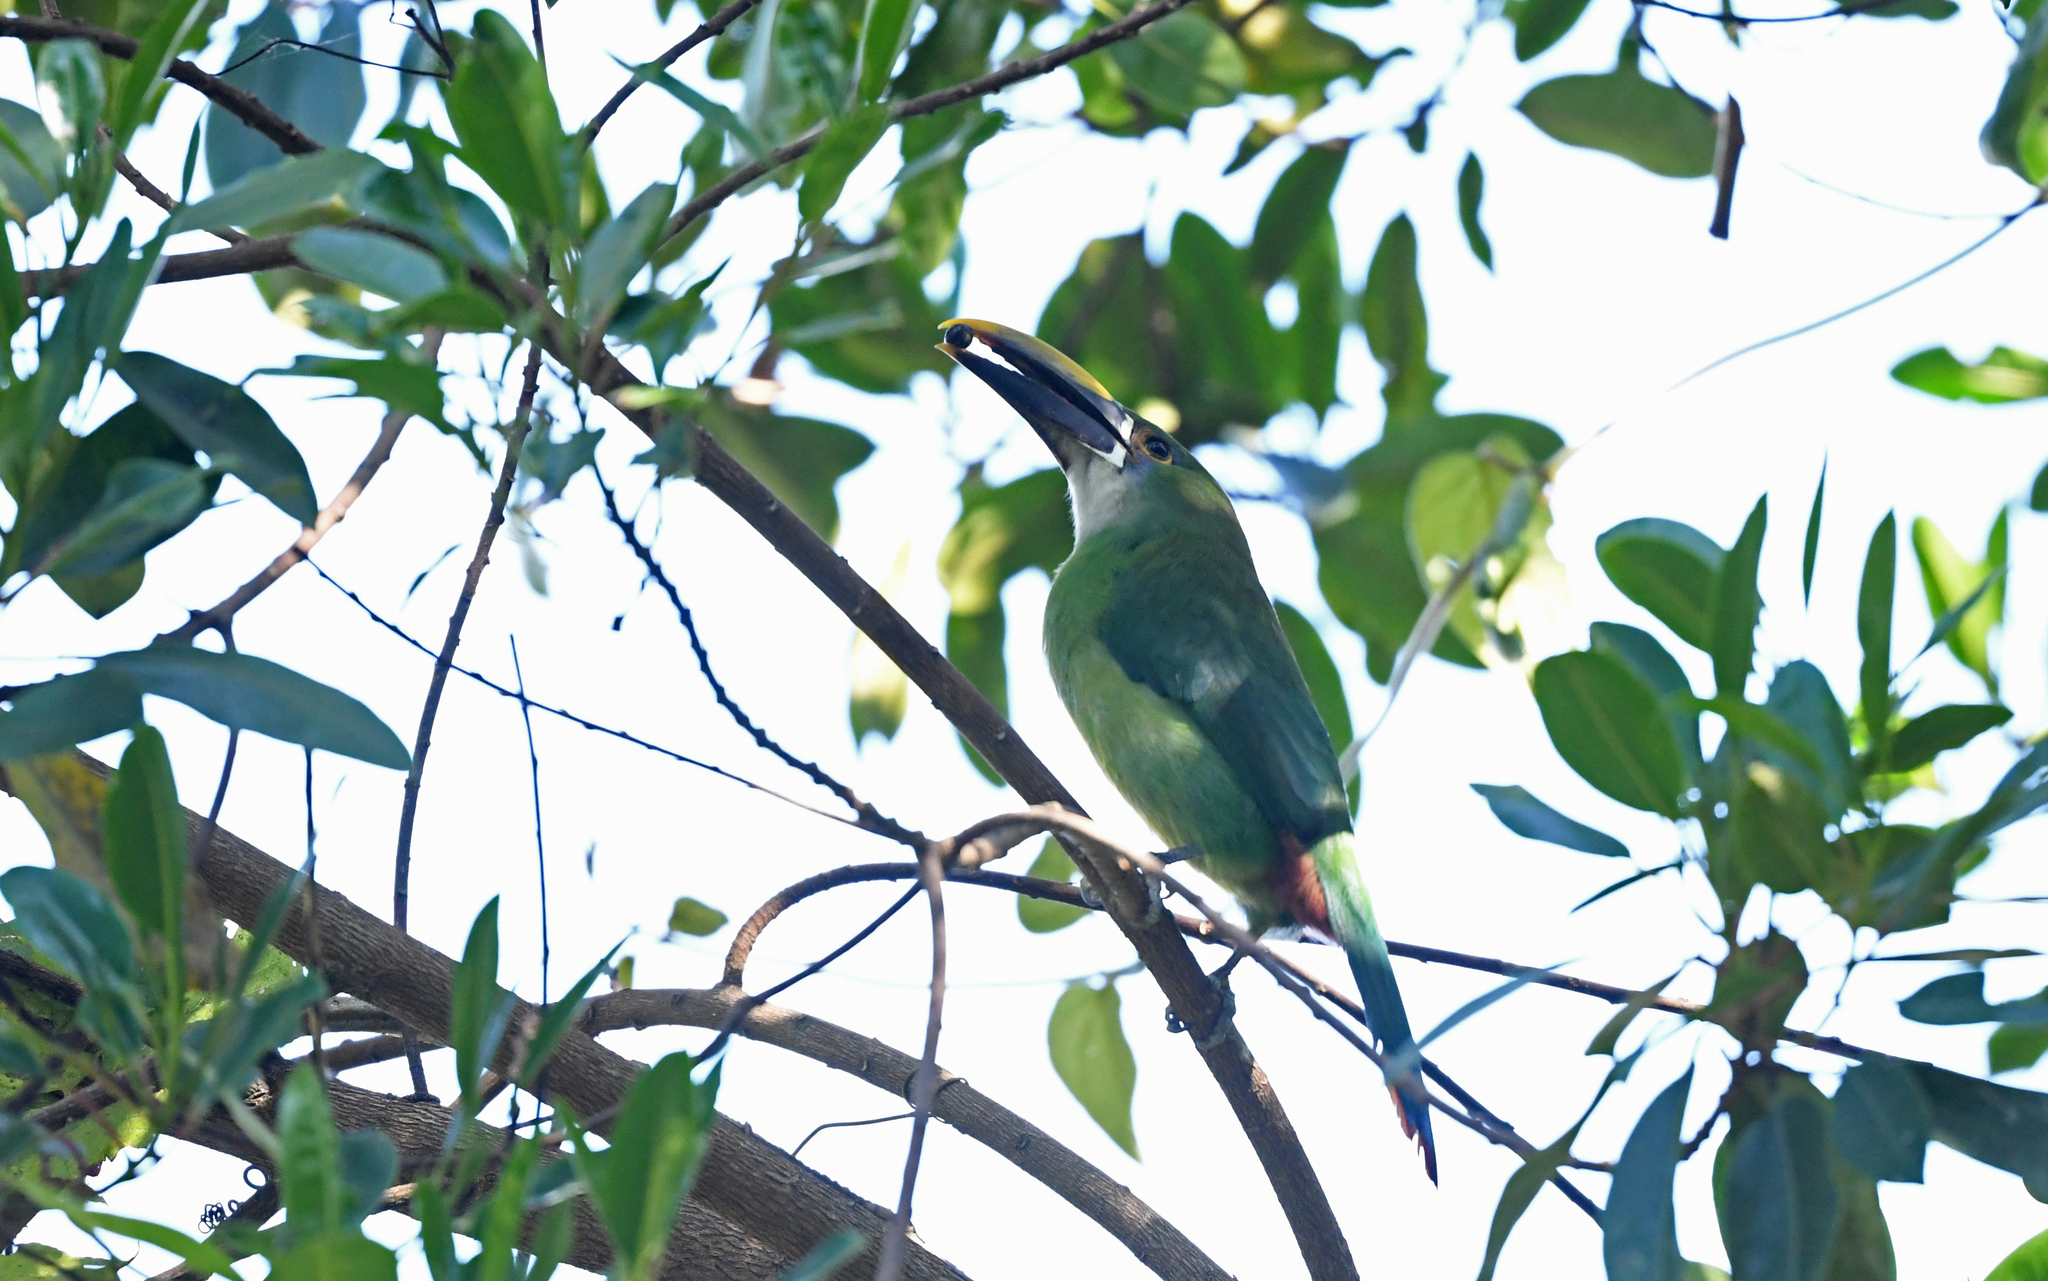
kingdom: Animalia
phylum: Chordata
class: Aves
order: Piciformes
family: Ramphastidae
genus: Aulacorhynchus
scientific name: Aulacorhynchus albivitta
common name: White-throated toucanet
